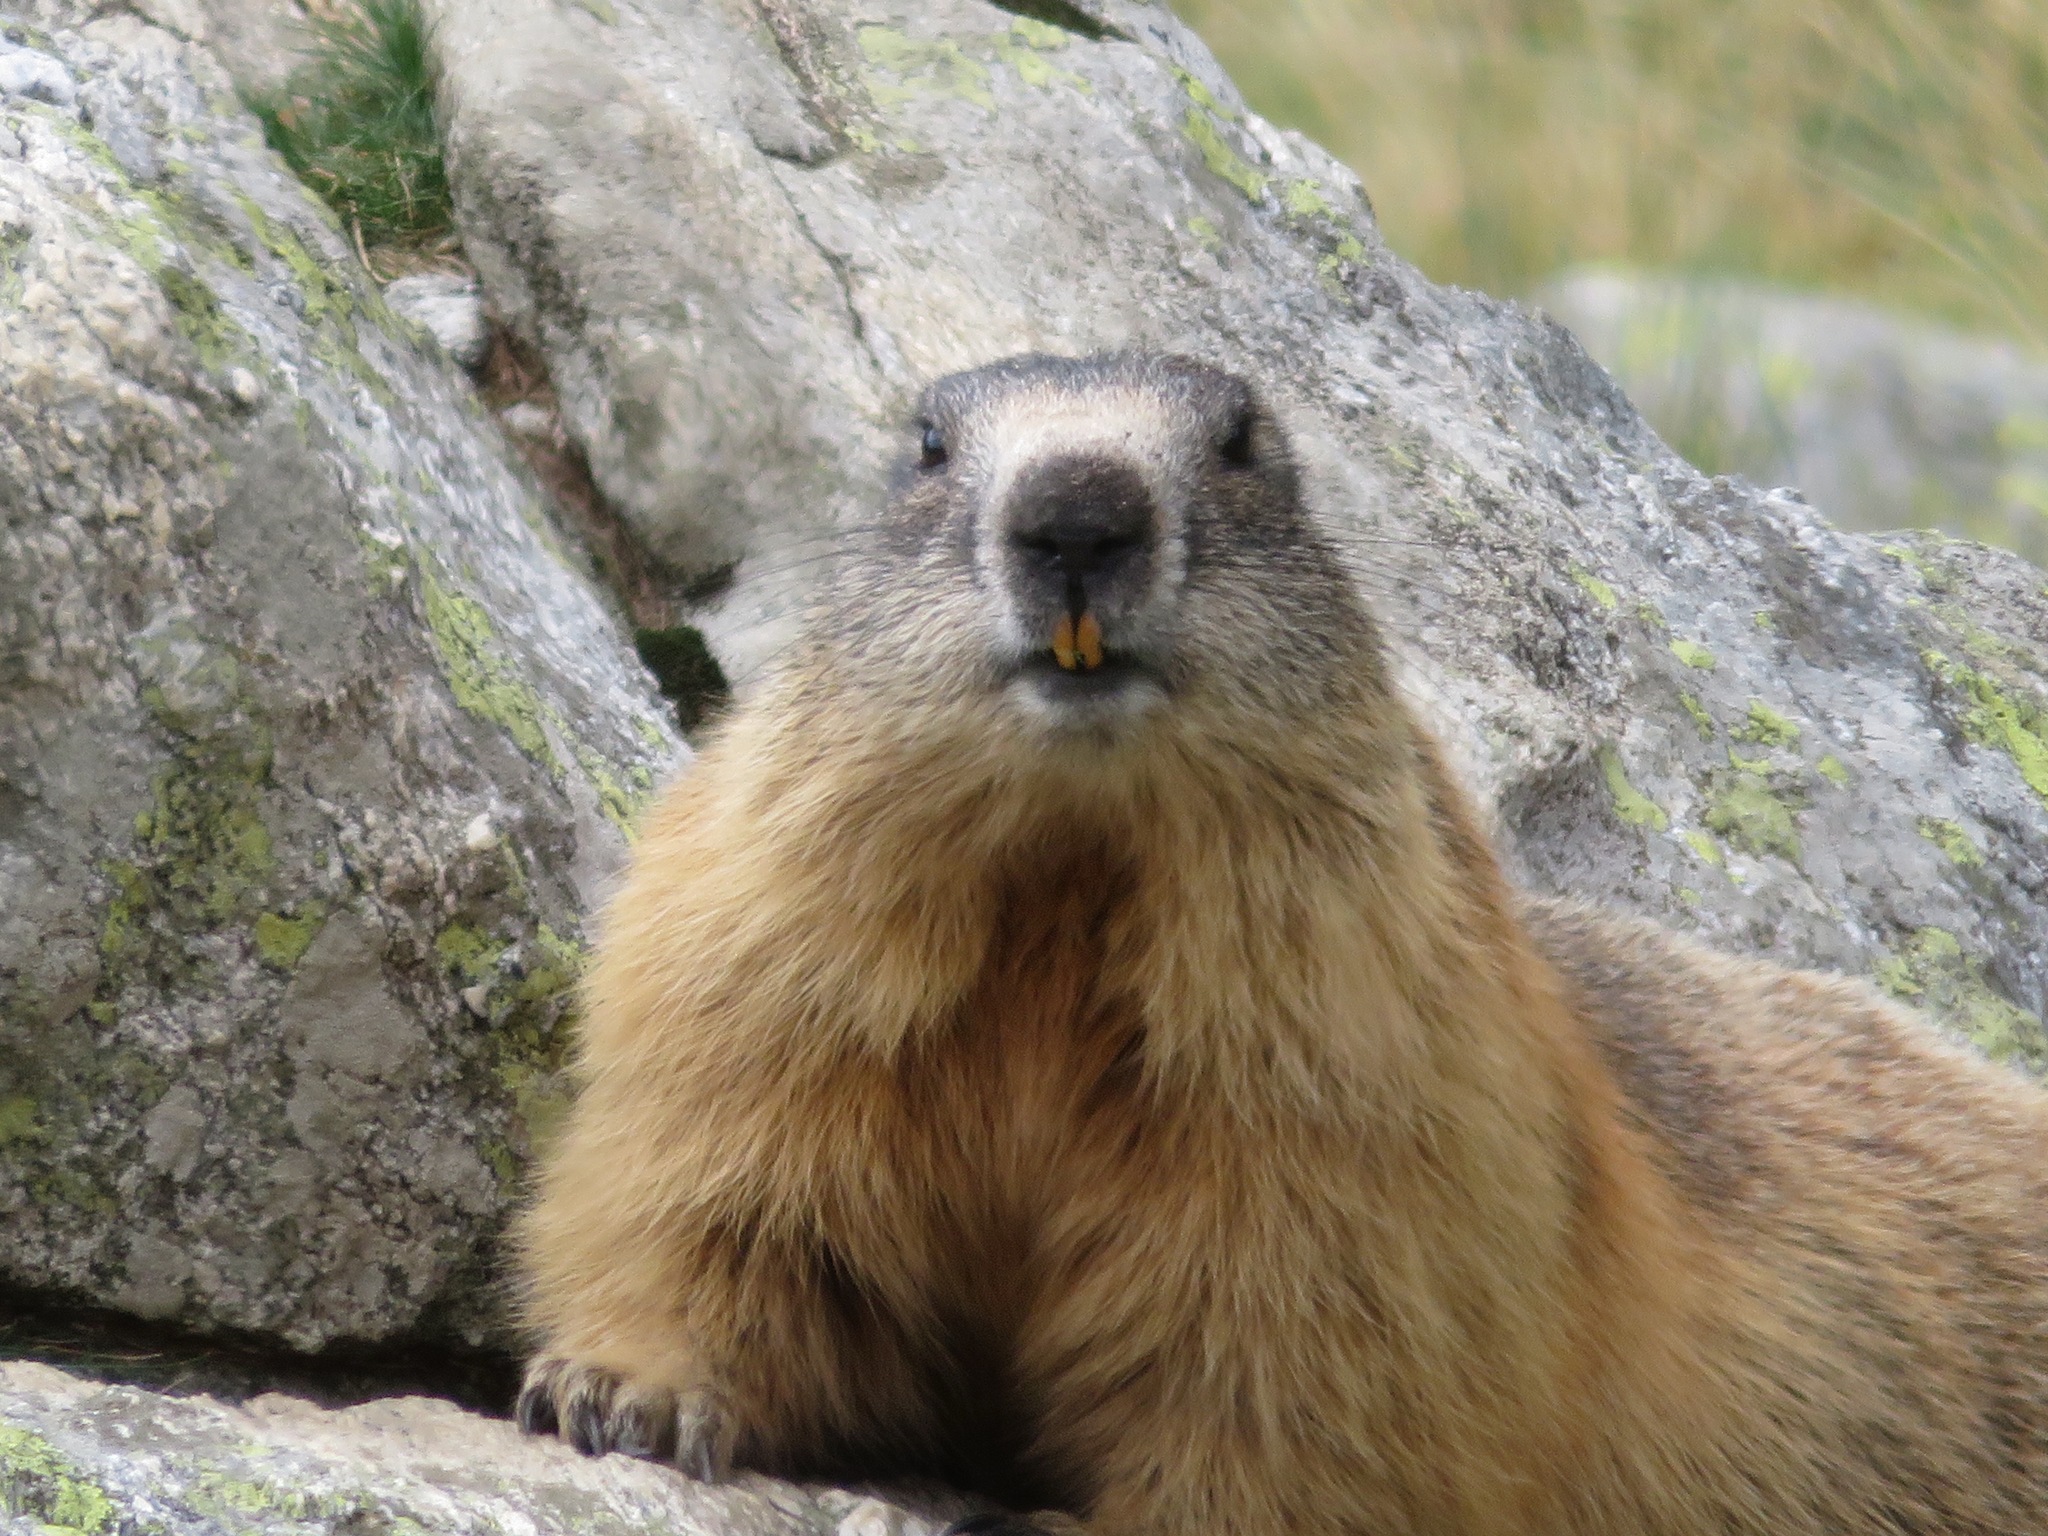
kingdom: Animalia
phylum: Chordata
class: Mammalia
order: Rodentia
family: Sciuridae
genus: Marmota
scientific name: Marmota marmota
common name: Alpine marmot
